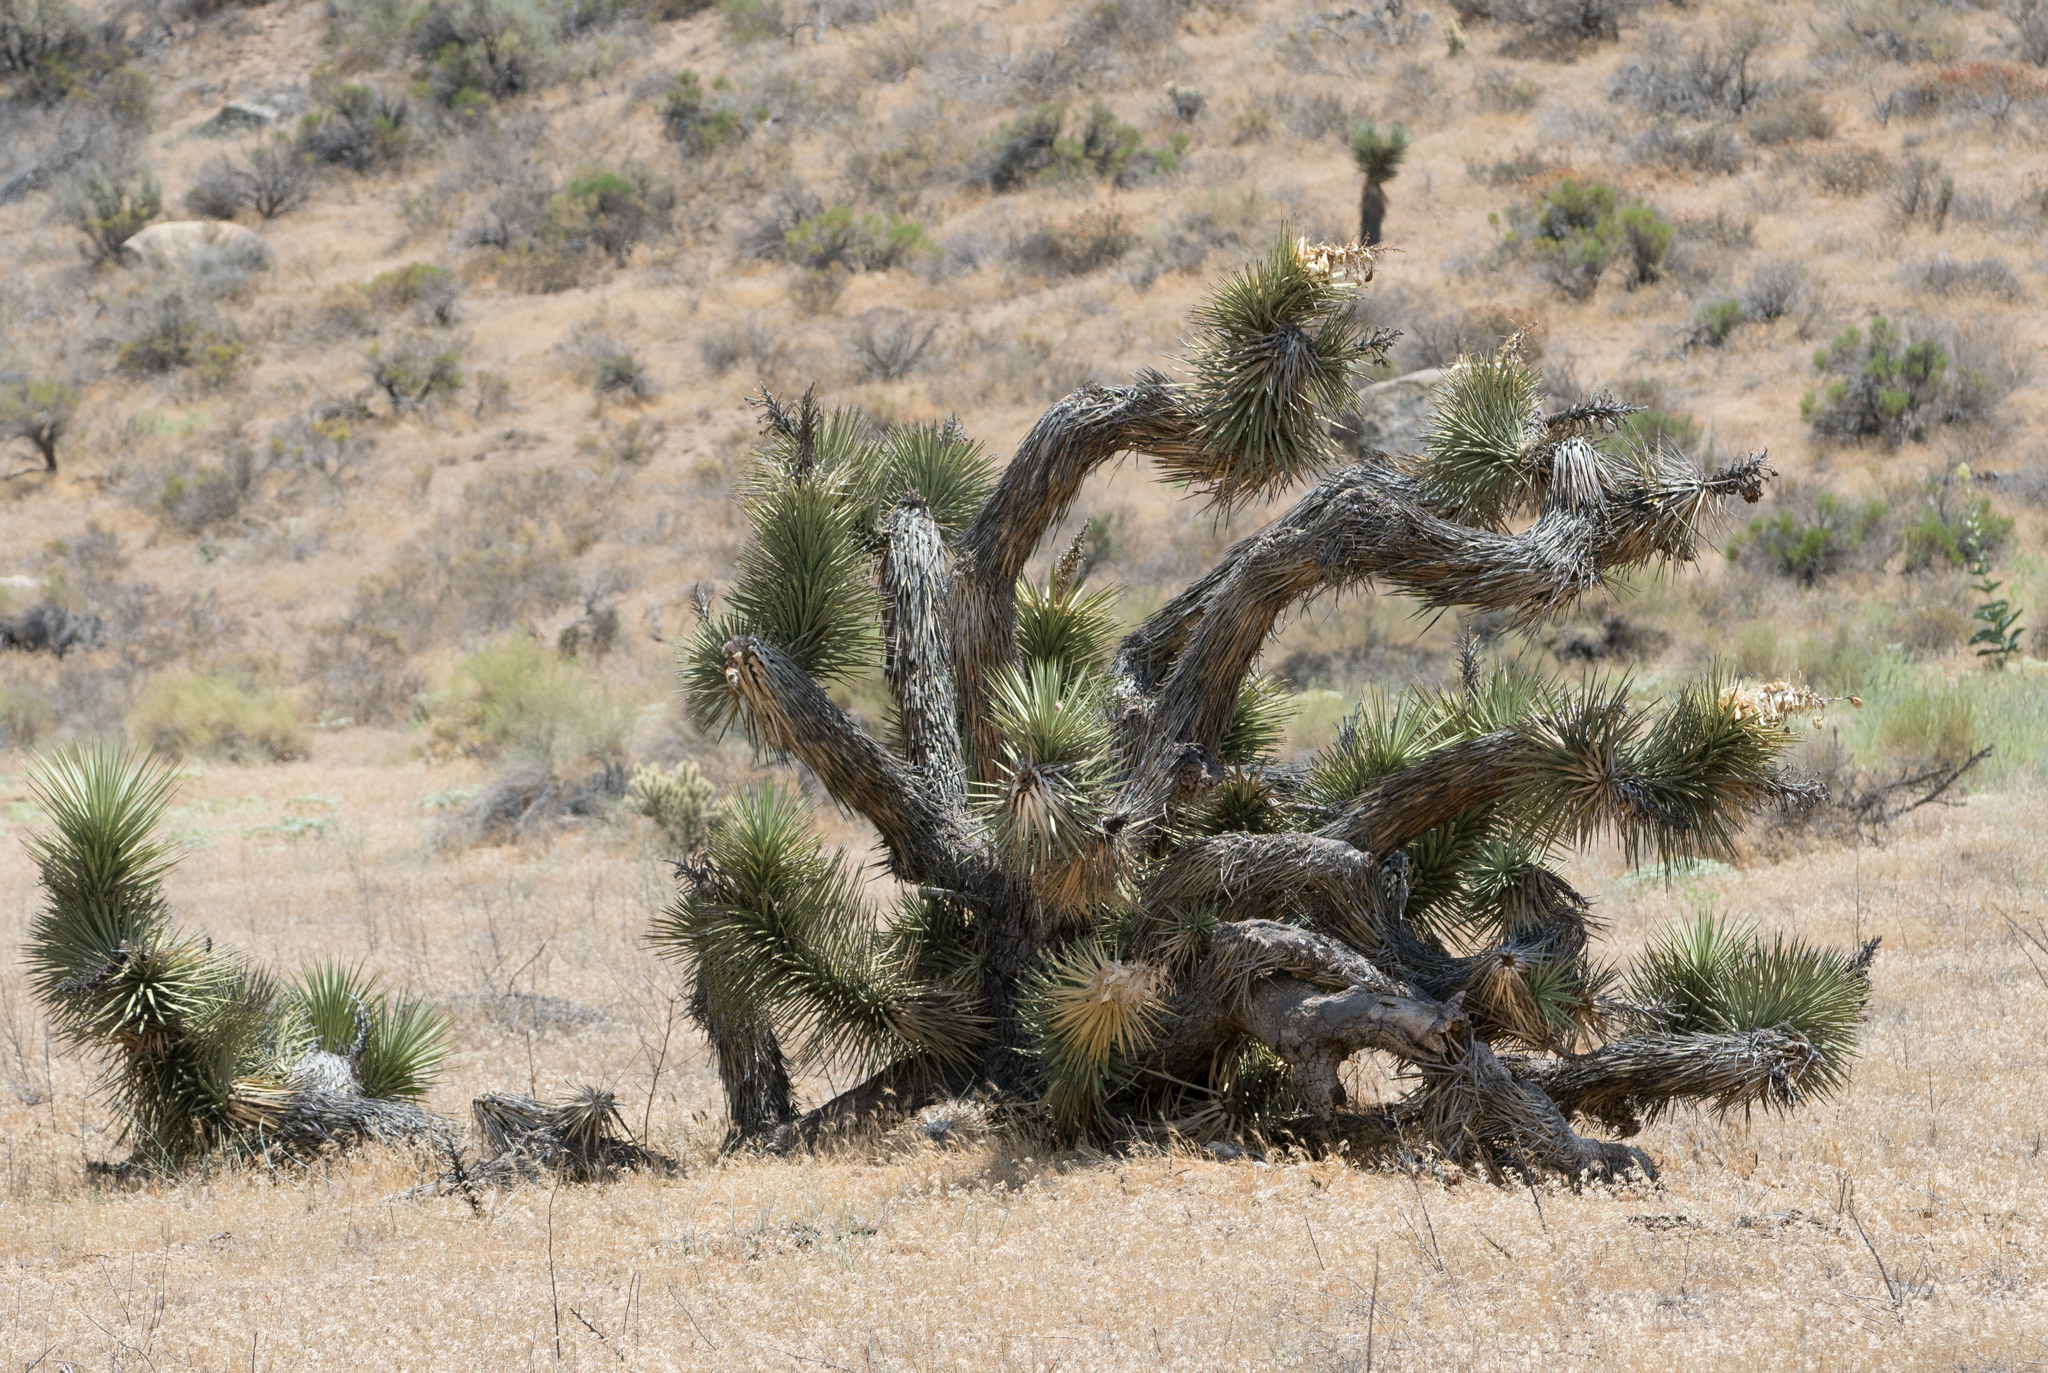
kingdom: Plantae
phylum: Tracheophyta
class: Liliopsida
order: Asparagales
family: Asparagaceae
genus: Yucca
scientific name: Yucca brevifolia
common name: Joshua tree
